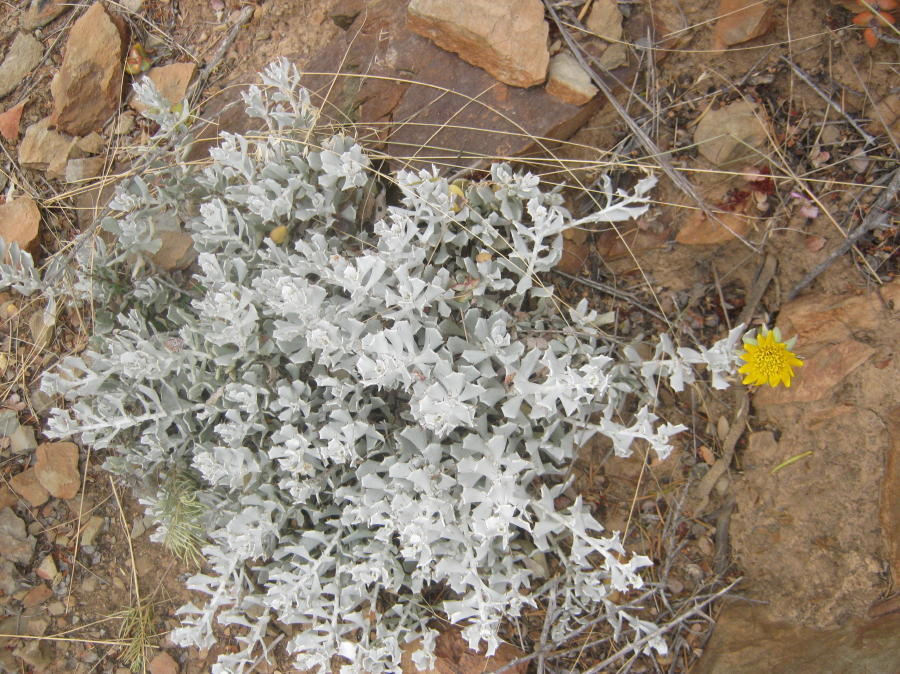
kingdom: Plantae
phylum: Tracheophyta
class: Magnoliopsida
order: Asterales
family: Asteraceae
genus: Berkheya
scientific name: Berkheya cuneata
